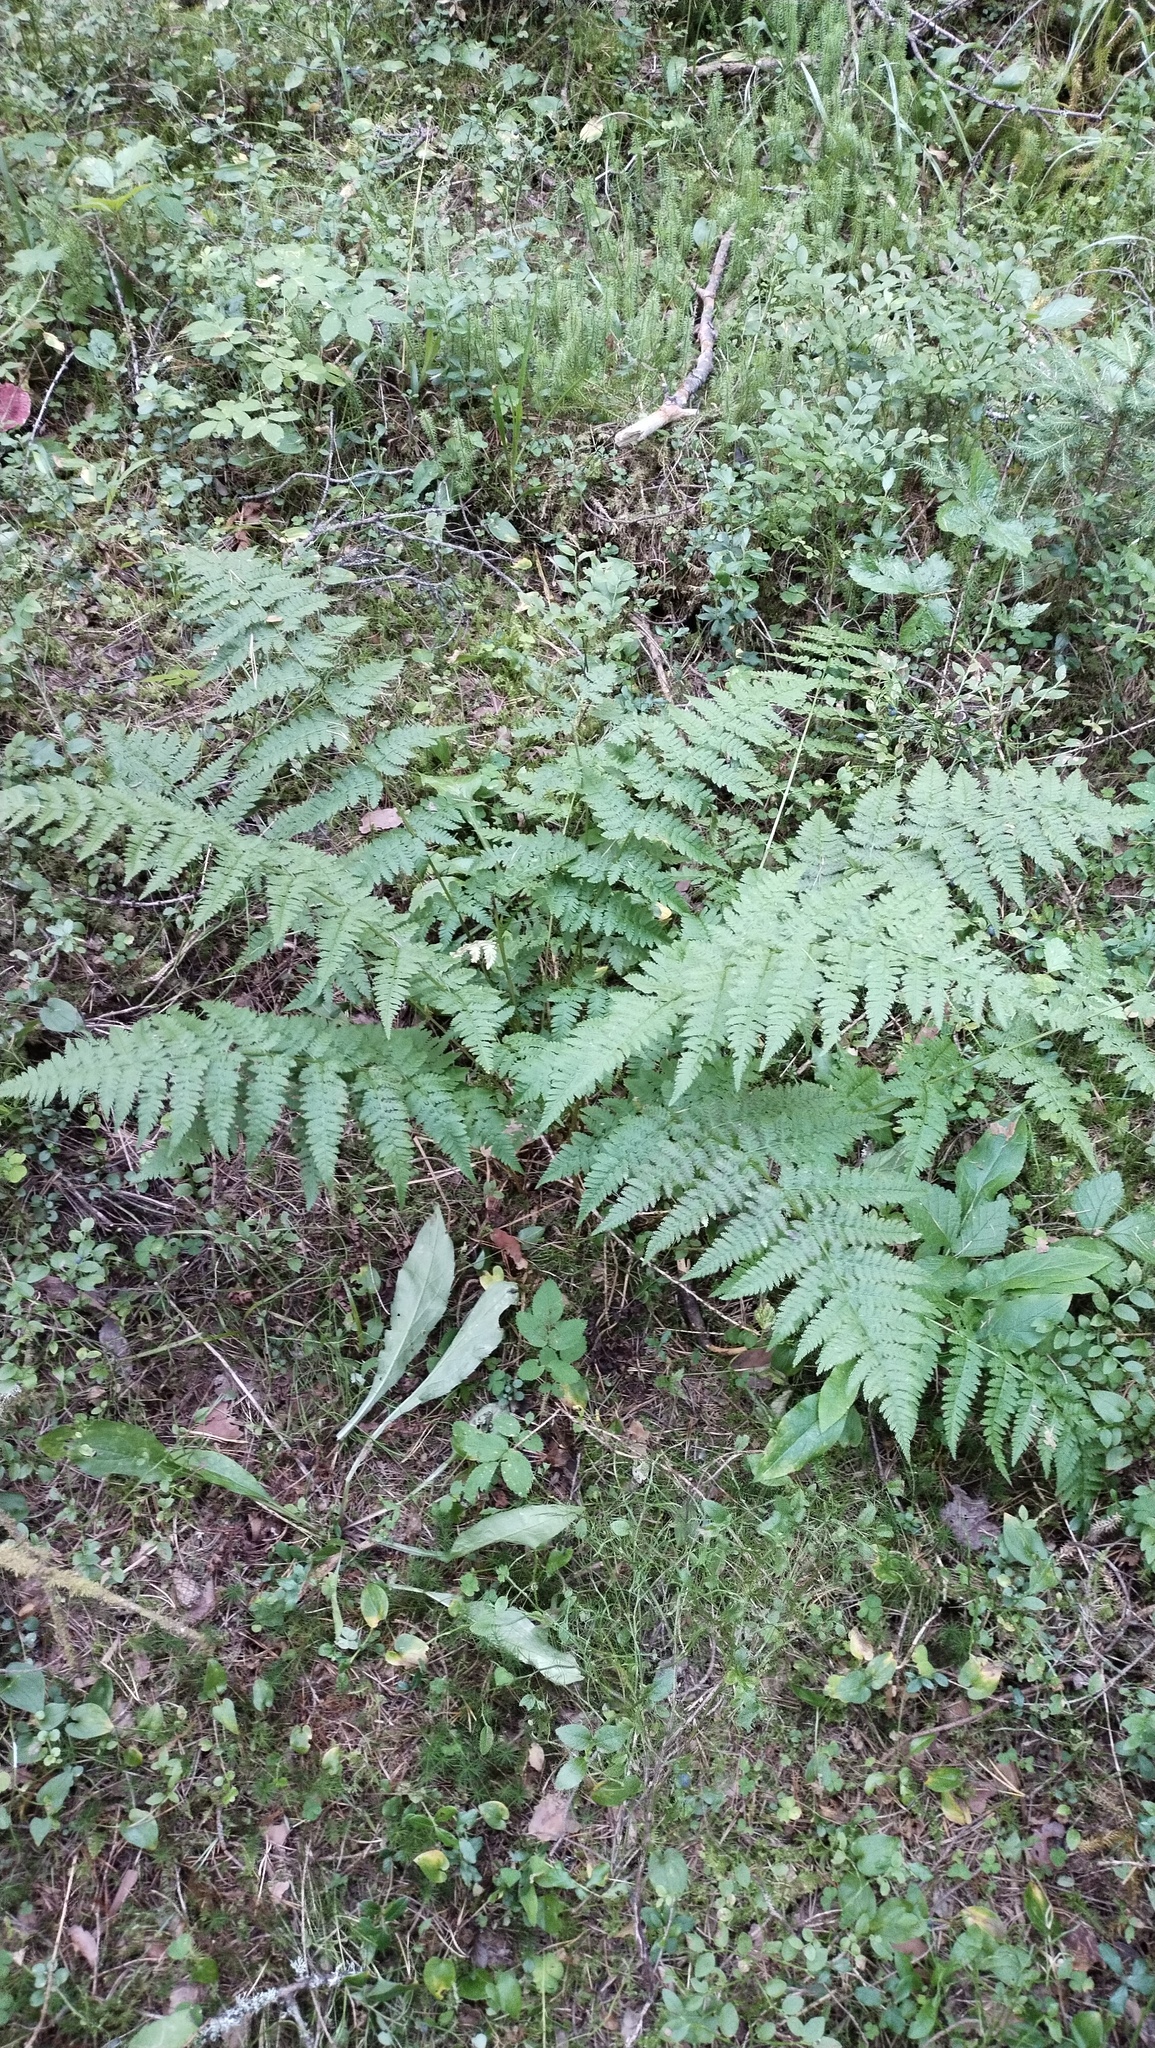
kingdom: Plantae
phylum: Tracheophyta
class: Polypodiopsida
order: Polypodiales
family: Dryopteridaceae
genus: Dryopteris
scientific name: Dryopteris carthusiana
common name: Narrow buckler-fern
